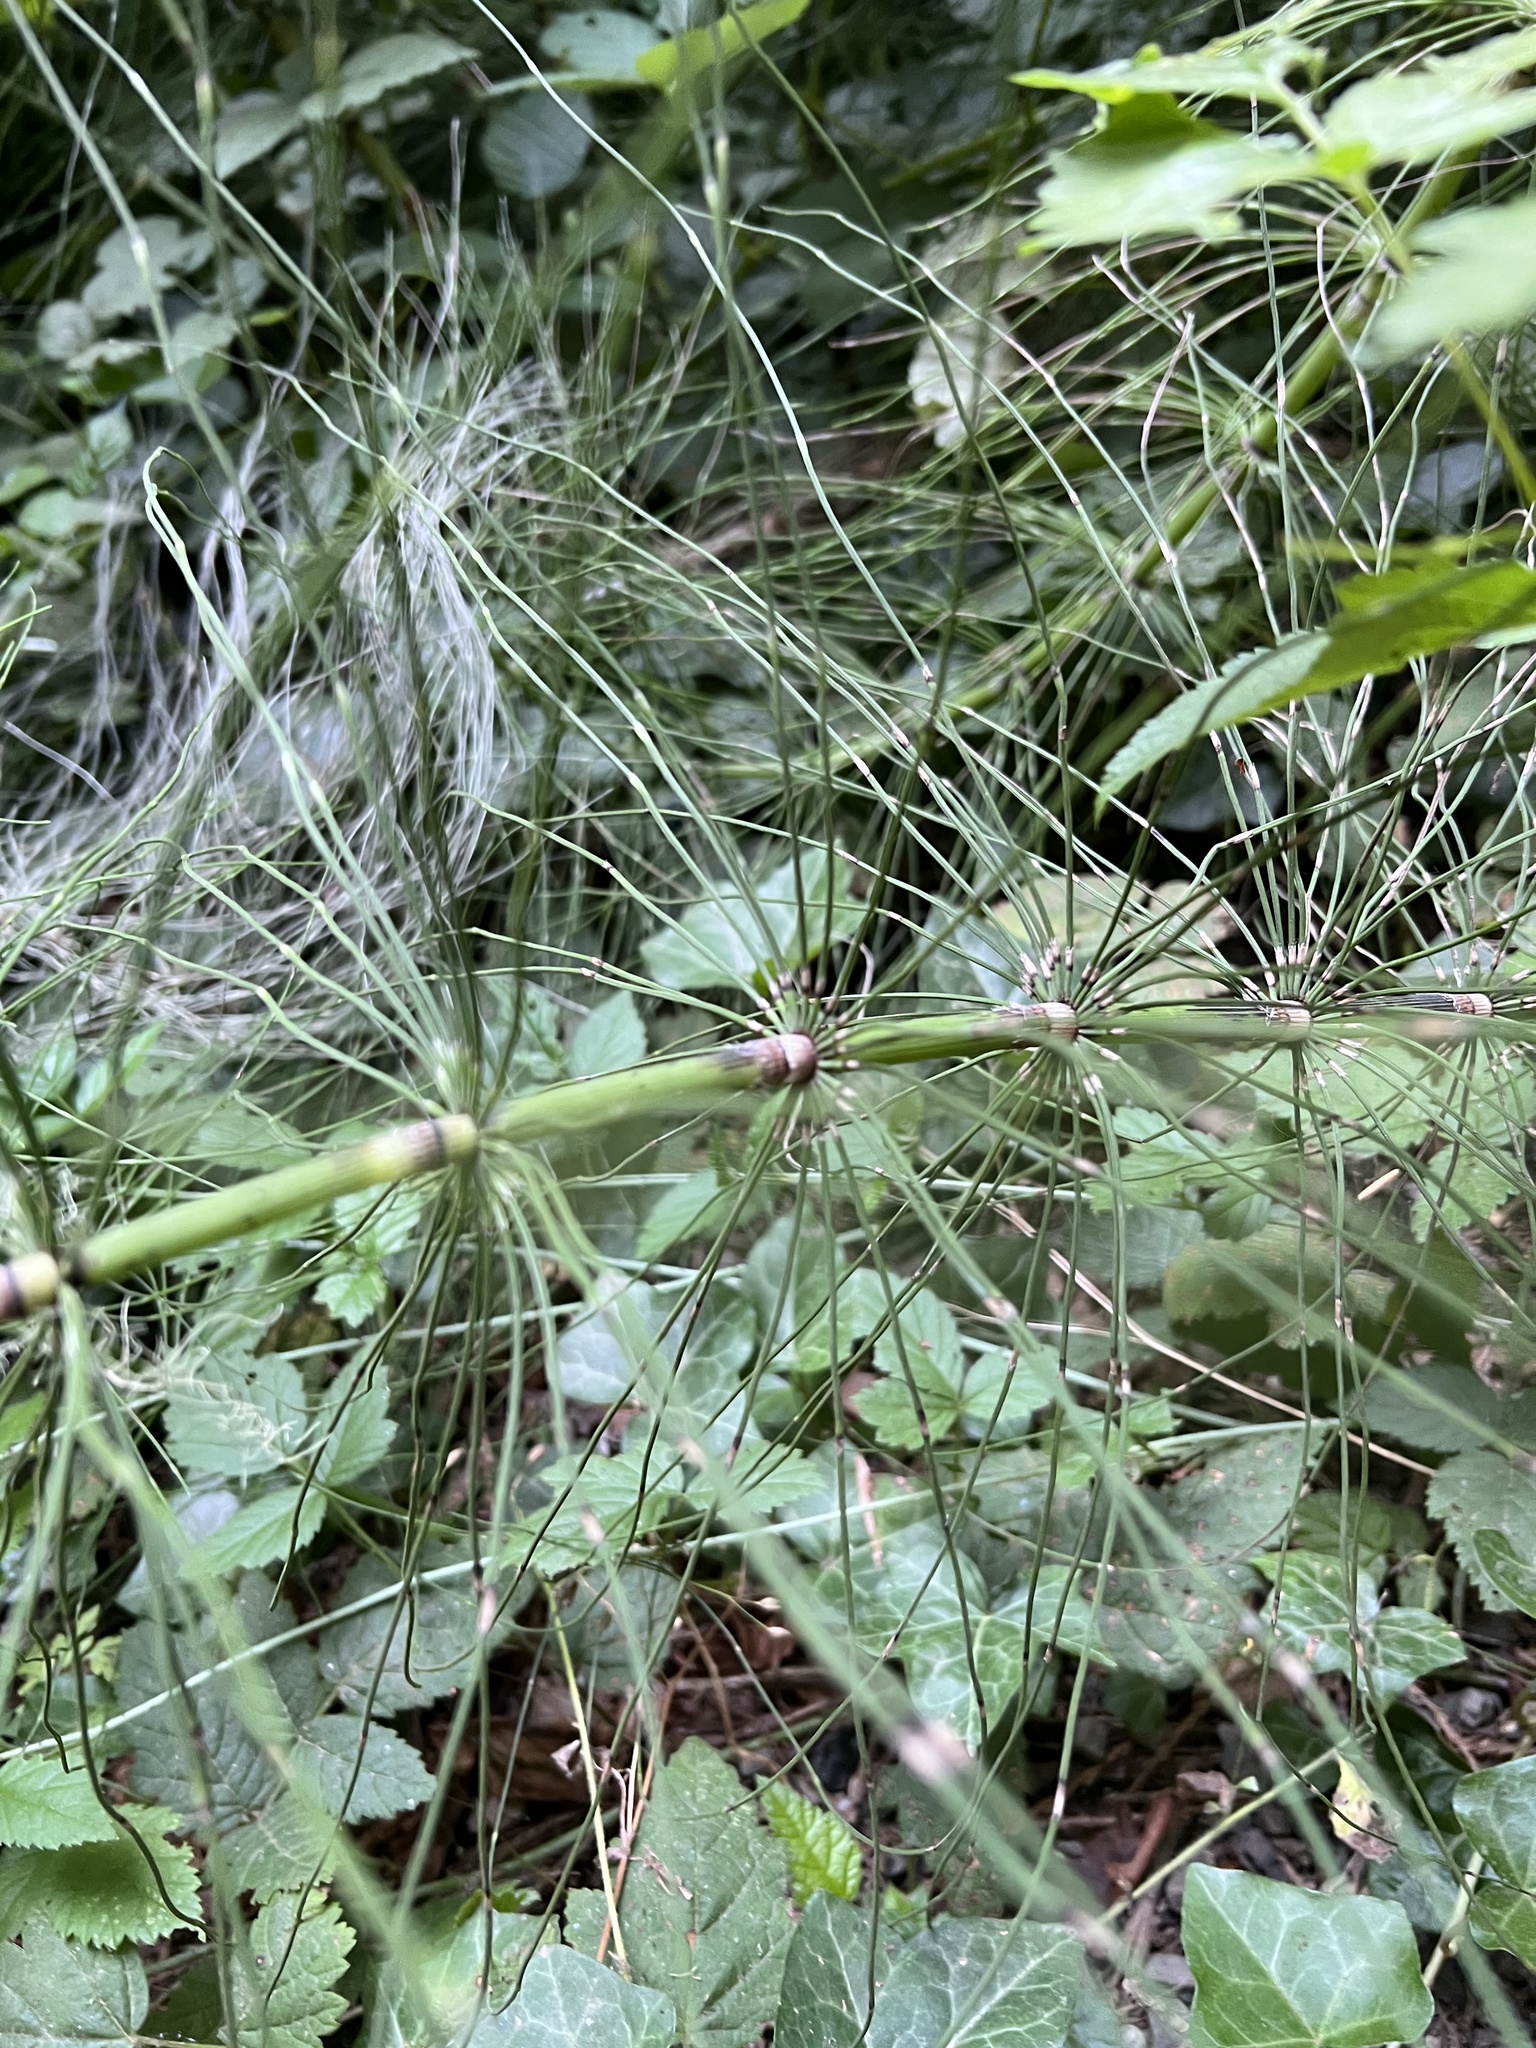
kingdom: Plantae
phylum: Tracheophyta
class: Polypodiopsida
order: Equisetales
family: Equisetaceae
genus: Equisetum
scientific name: Equisetum braunii
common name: Braun's horsetail
